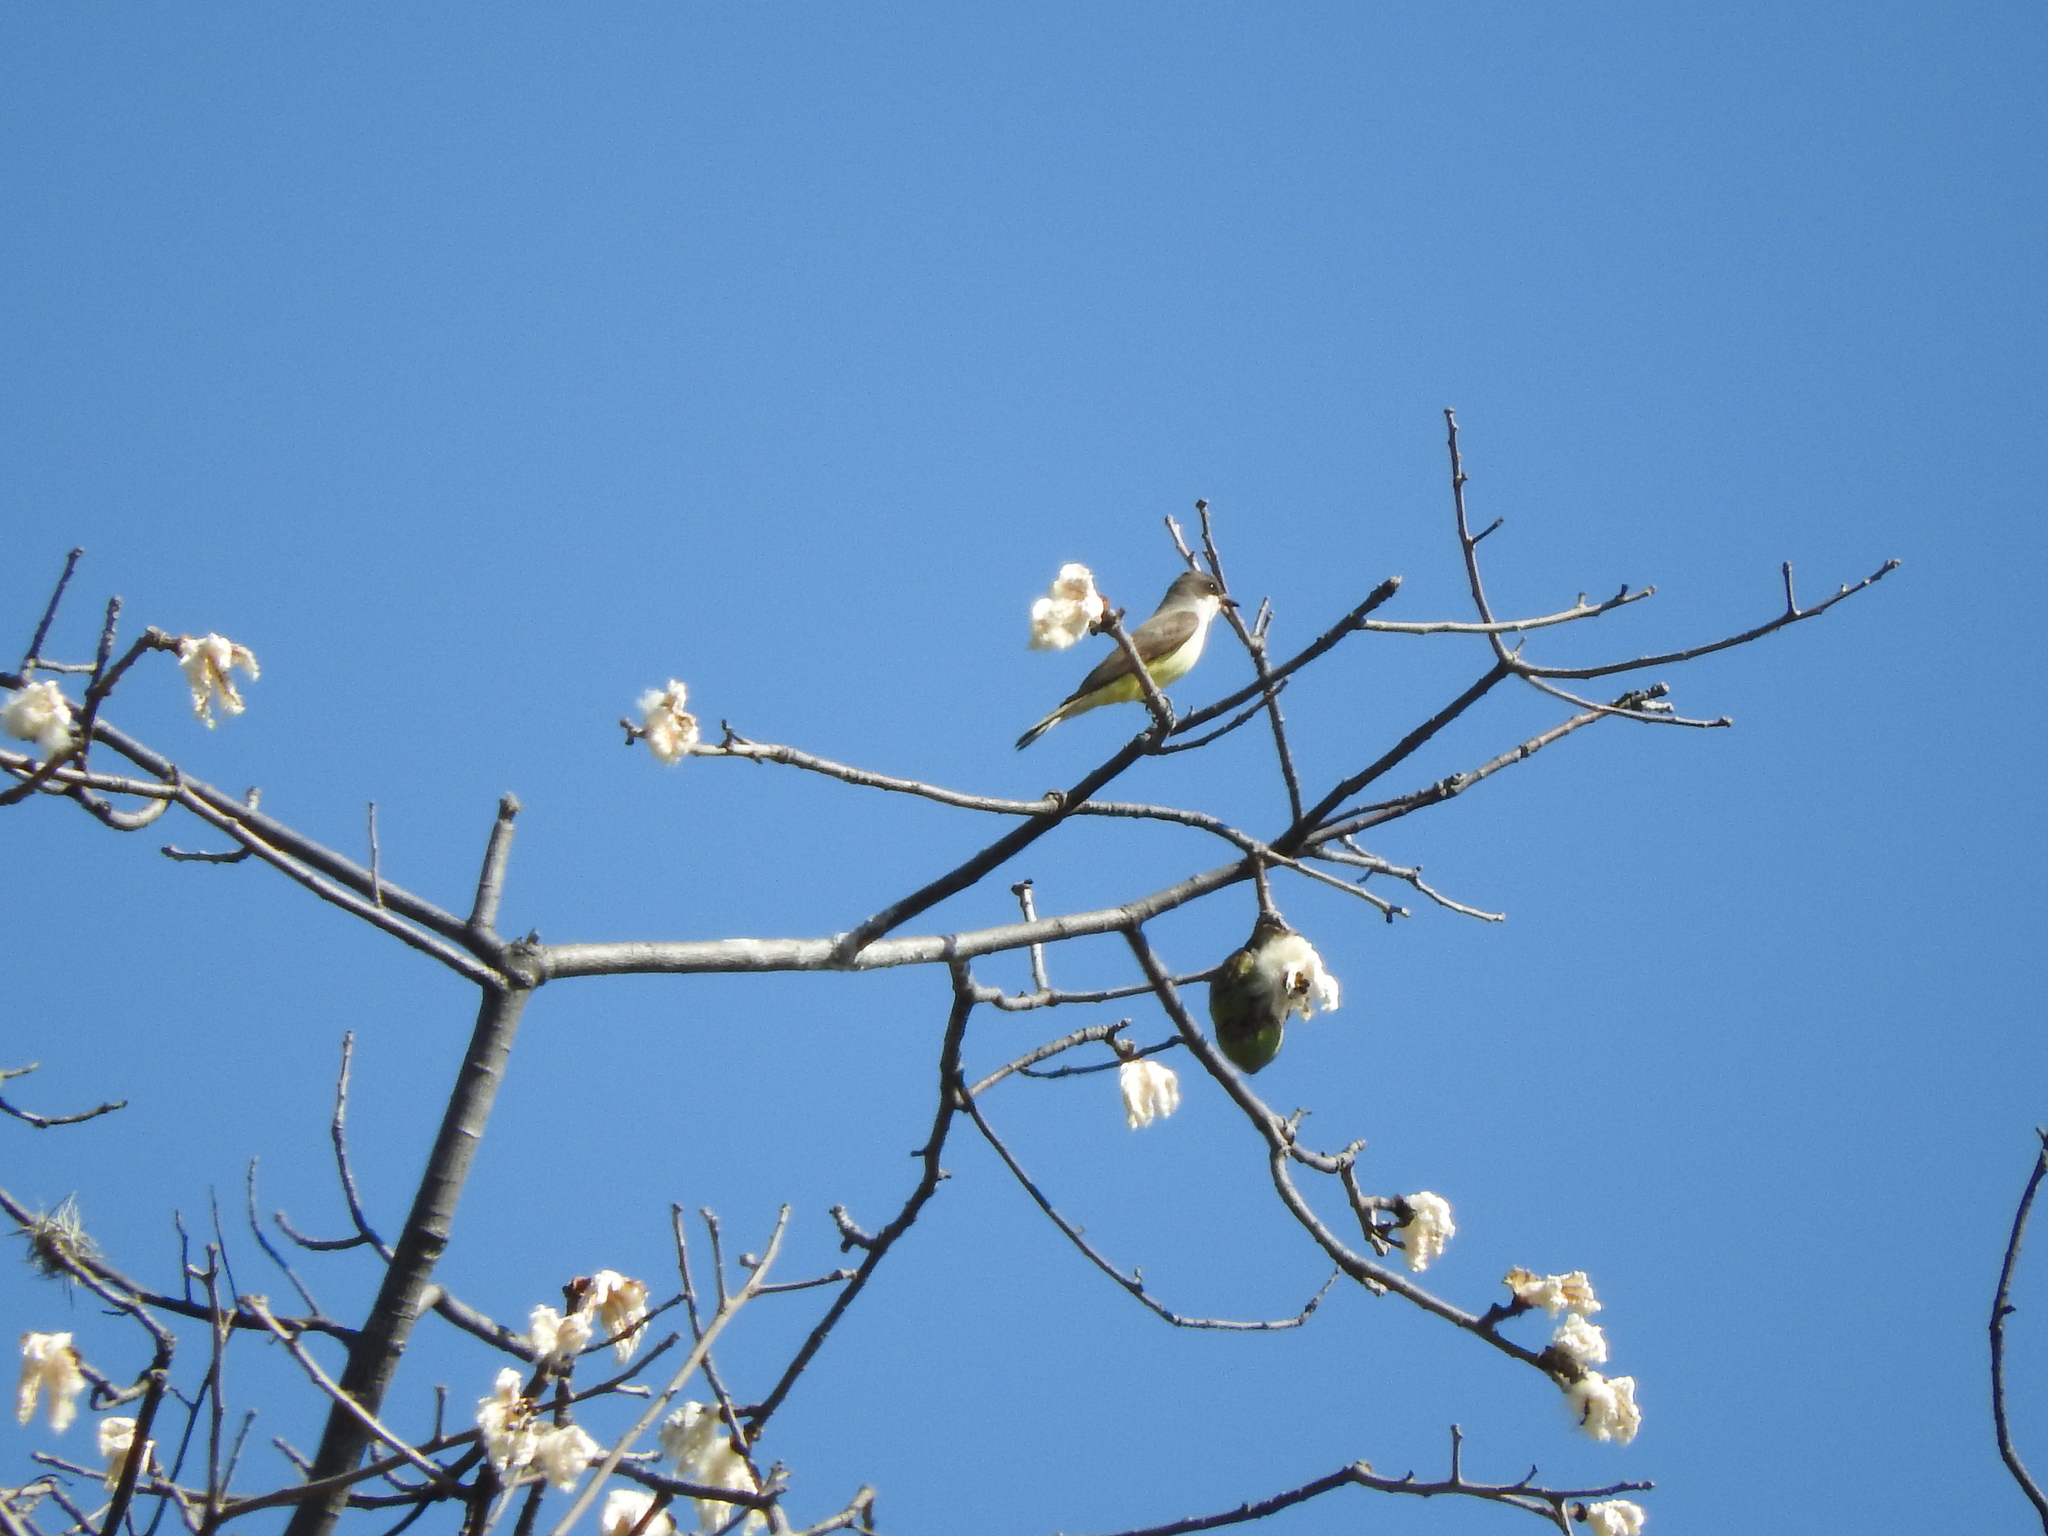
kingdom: Animalia
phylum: Chordata
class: Aves
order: Passeriformes
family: Tyrannidae
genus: Tyrannus
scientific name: Tyrannus crassirostris
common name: Thick-billed kingbird
